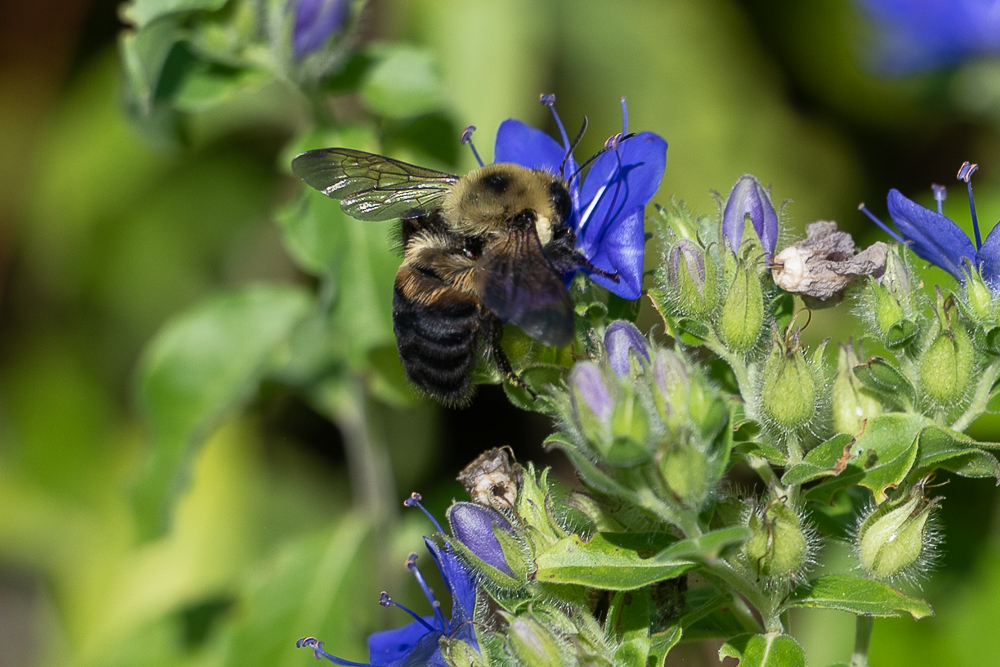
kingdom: Animalia
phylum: Arthropoda
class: Insecta
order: Hymenoptera
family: Apidae
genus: Bombus
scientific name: Bombus griseocollis
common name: Brown-belted bumble bee
